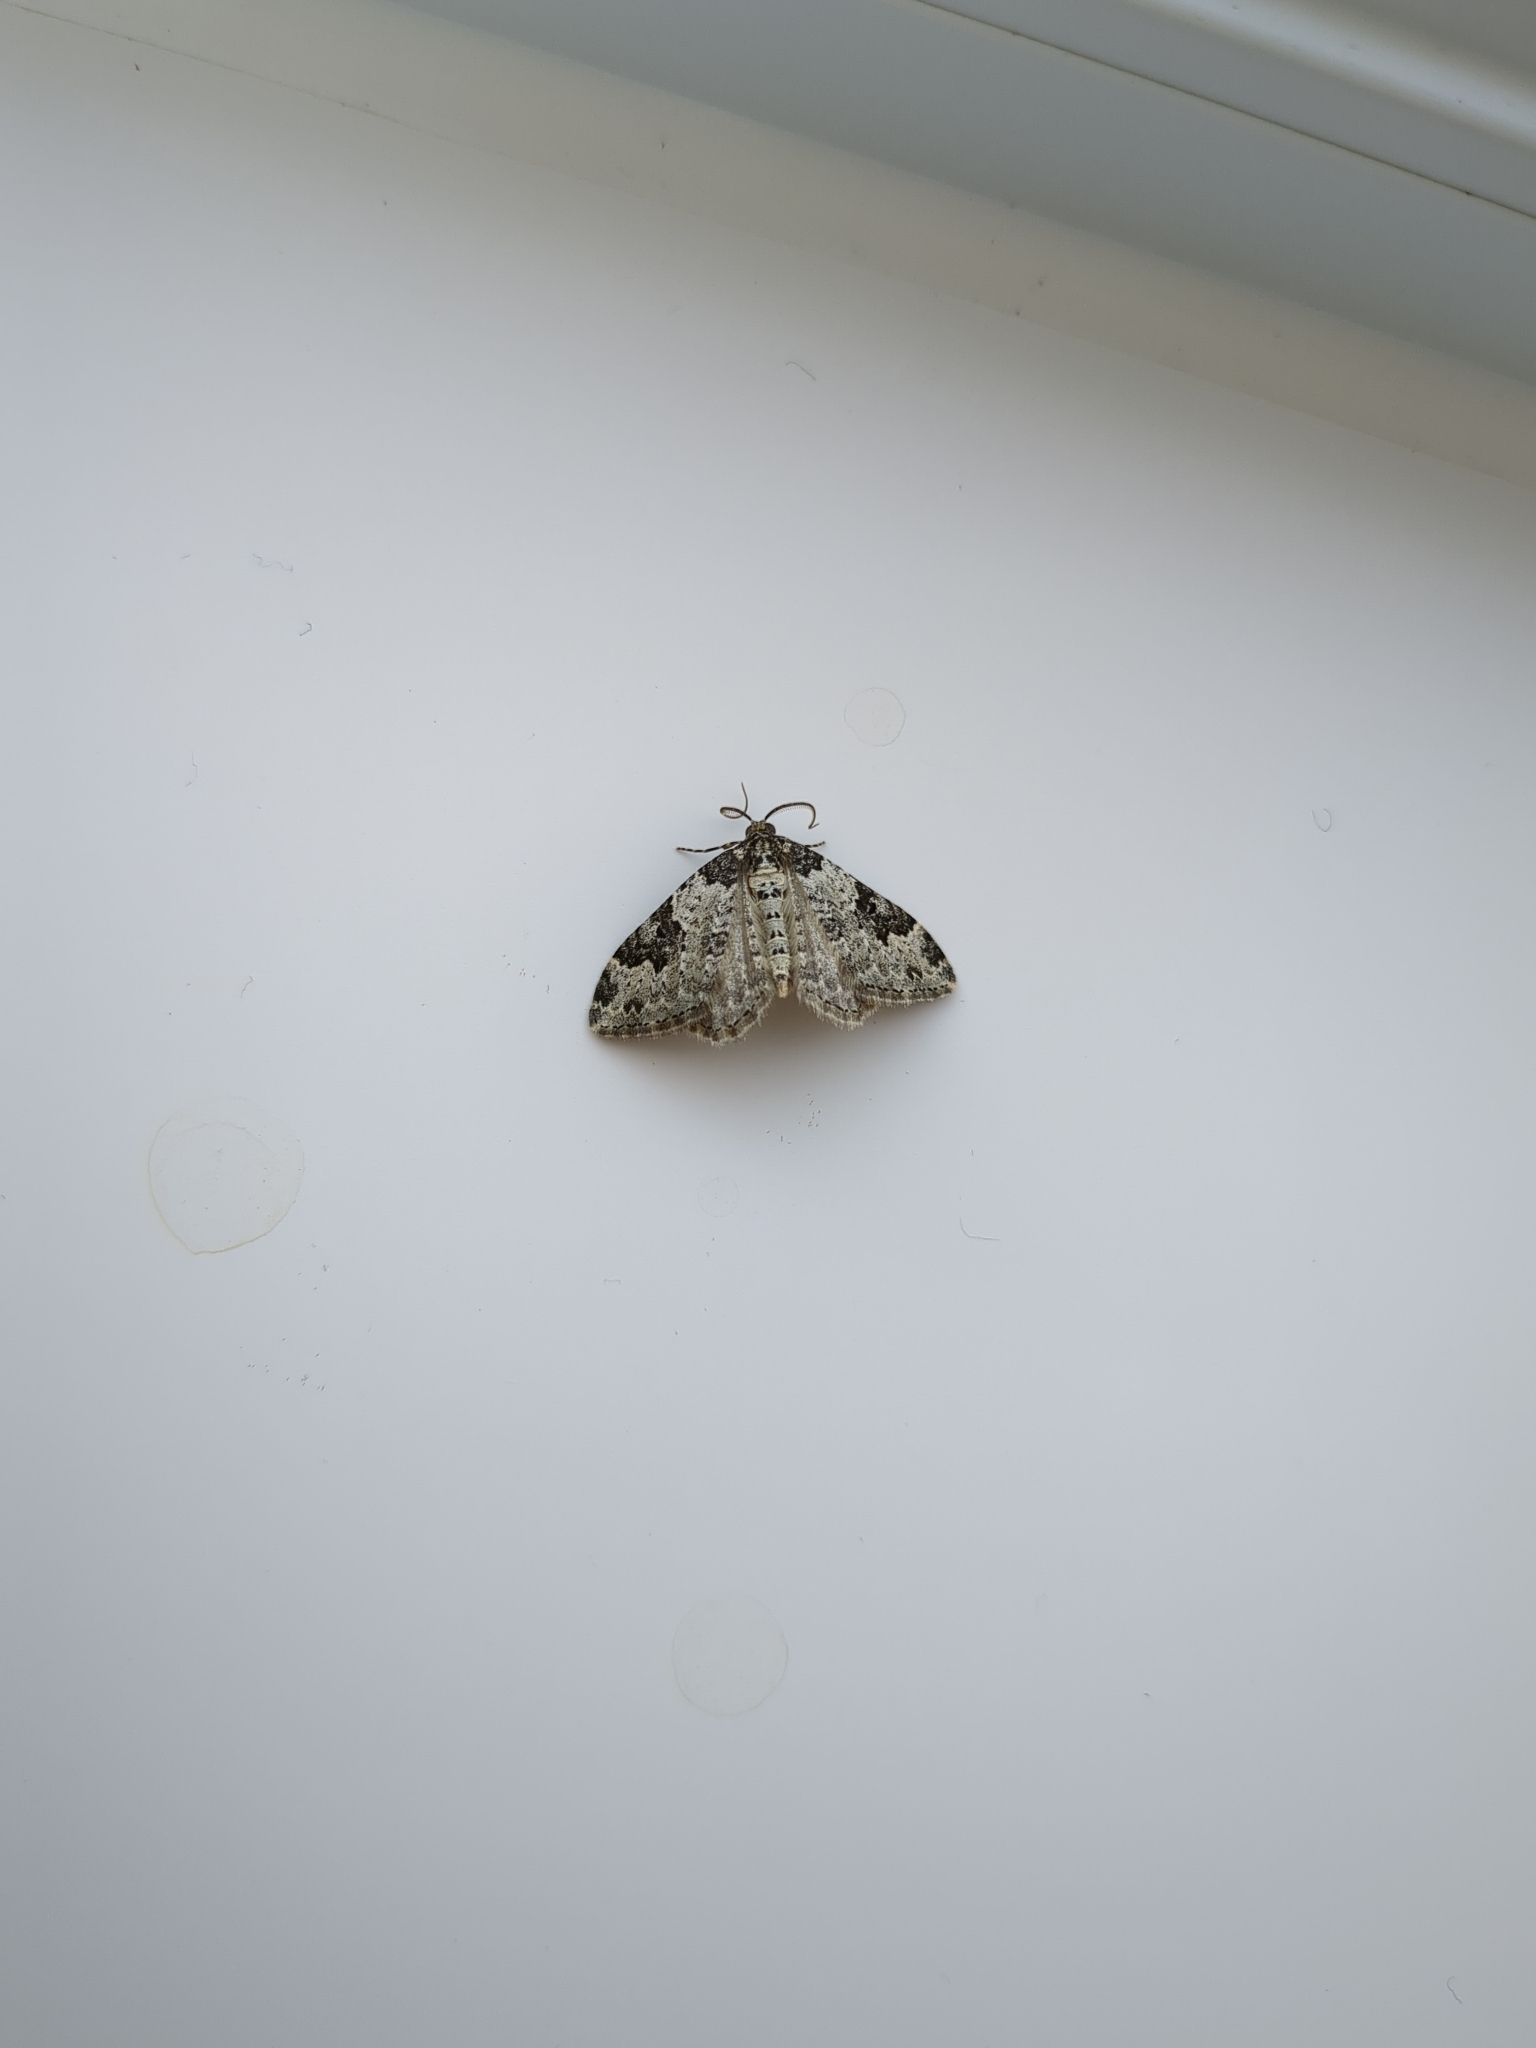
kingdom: Animalia
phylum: Arthropoda
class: Insecta
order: Lepidoptera
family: Geometridae
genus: Xanthorhoe
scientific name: Xanthorhoe fluctuata
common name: Garden carpet
